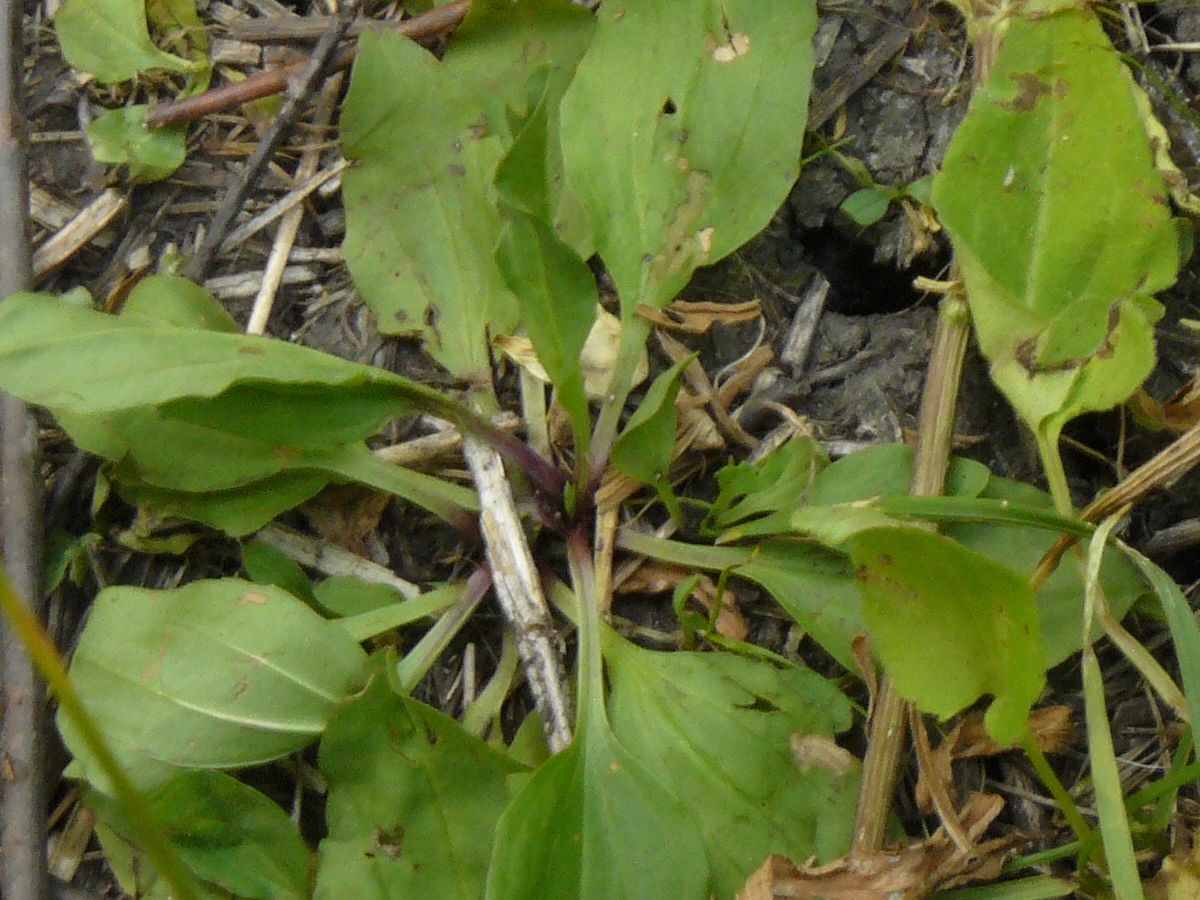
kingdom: Plantae
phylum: Tracheophyta
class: Magnoliopsida
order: Lamiales
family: Plantaginaceae
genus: Plantago
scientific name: Plantago rugelii
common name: American plantain
